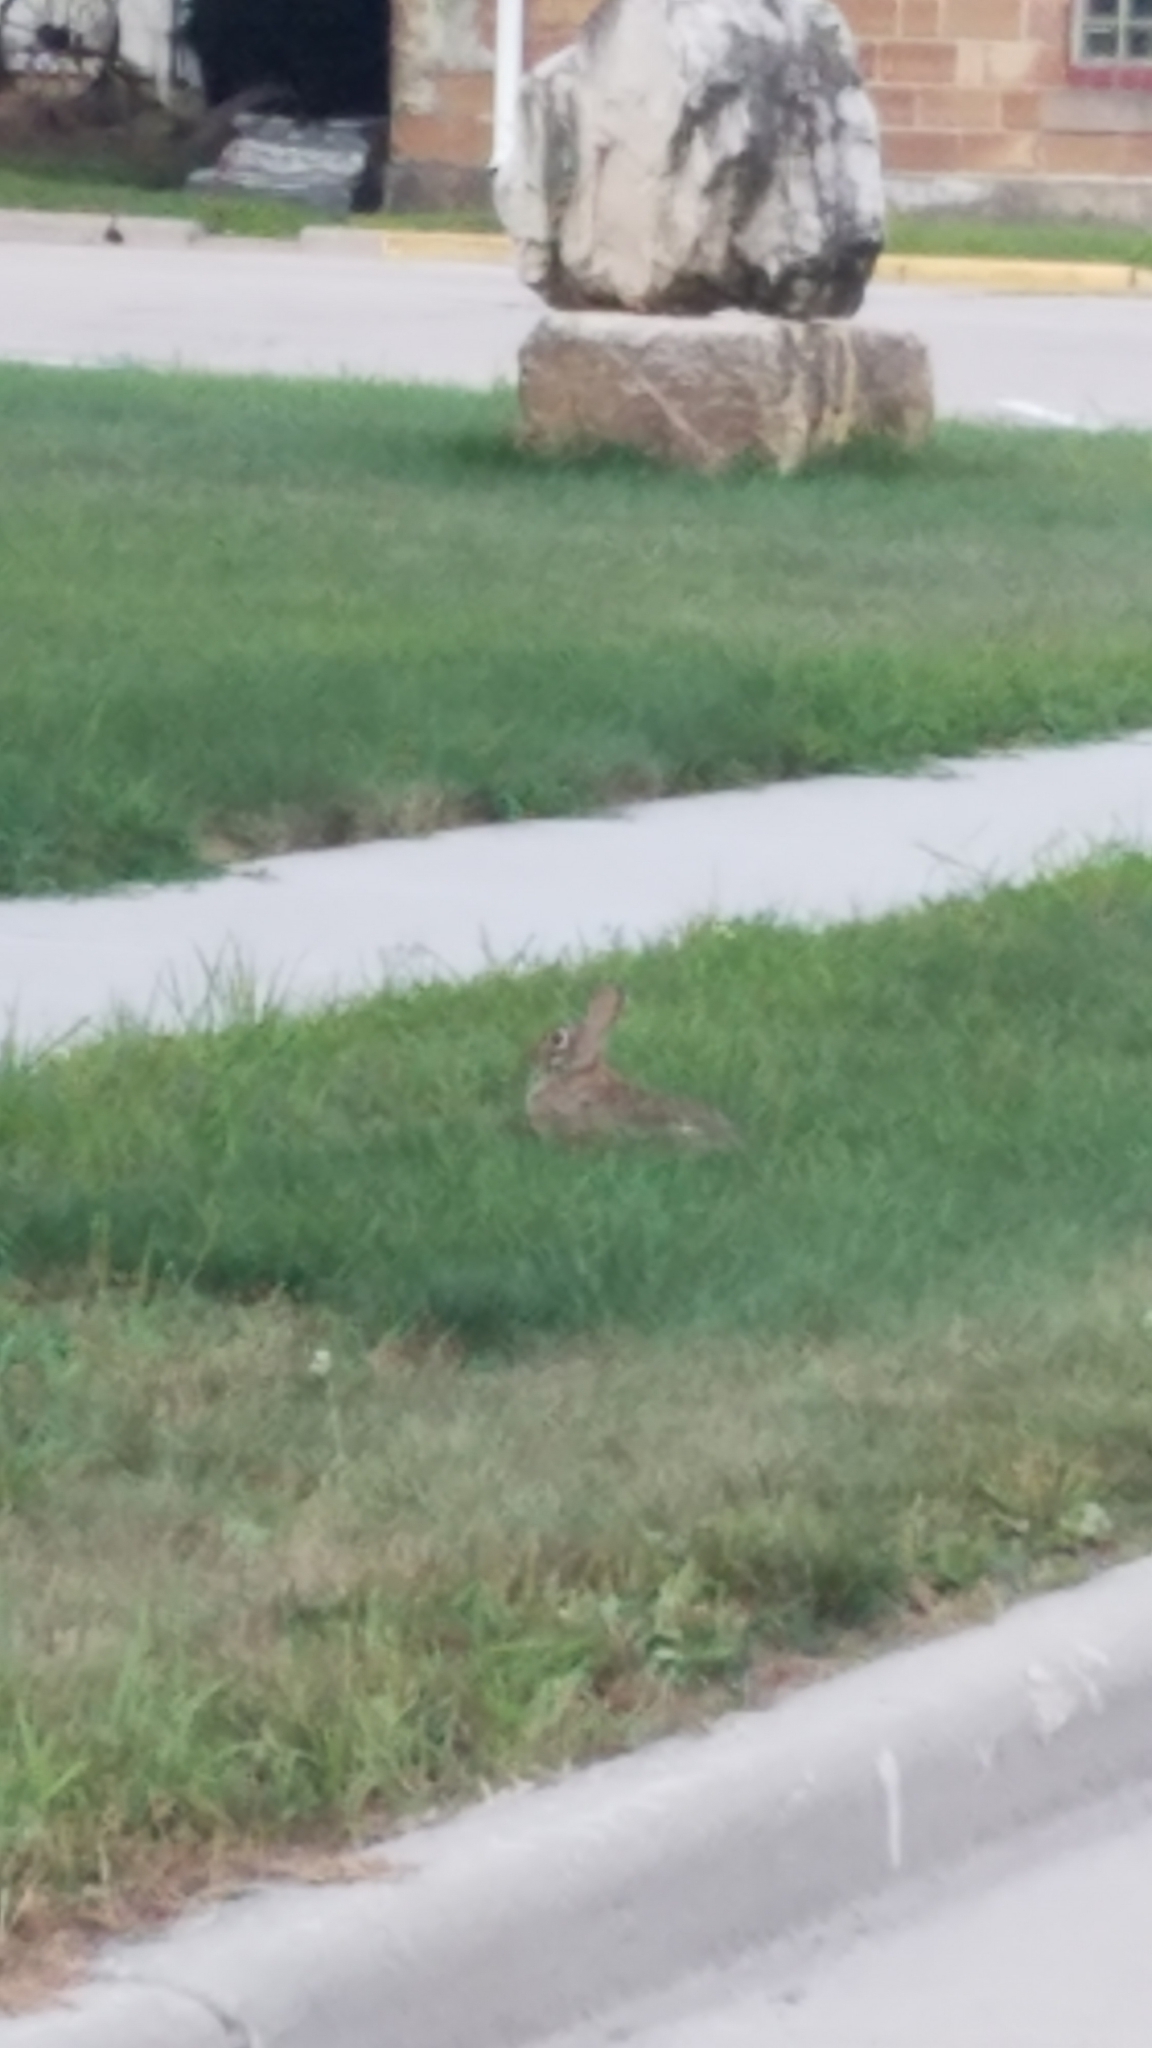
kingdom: Animalia
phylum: Chordata
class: Mammalia
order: Lagomorpha
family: Leporidae
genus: Sylvilagus
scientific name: Sylvilagus floridanus
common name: Eastern cottontail
